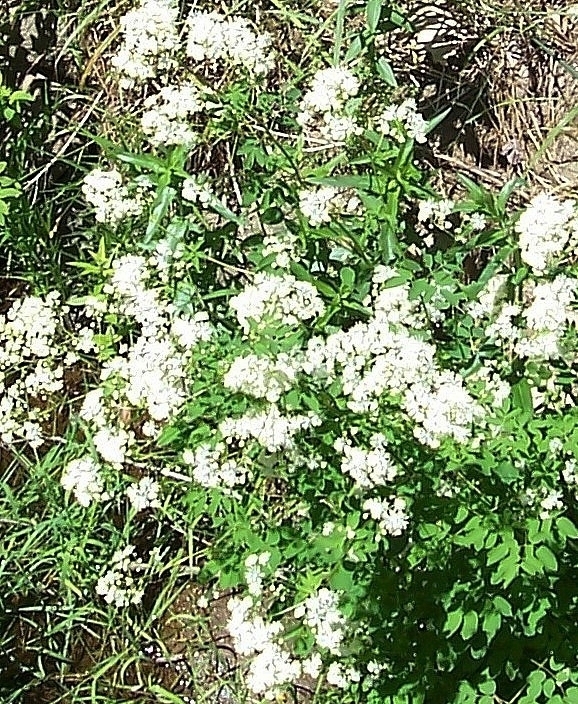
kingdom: Plantae
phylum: Tracheophyta
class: Magnoliopsida
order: Ranunculales
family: Ranunculaceae
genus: Thalictrum
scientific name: Thalictrum pubescens
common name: King-of-the-meadow
